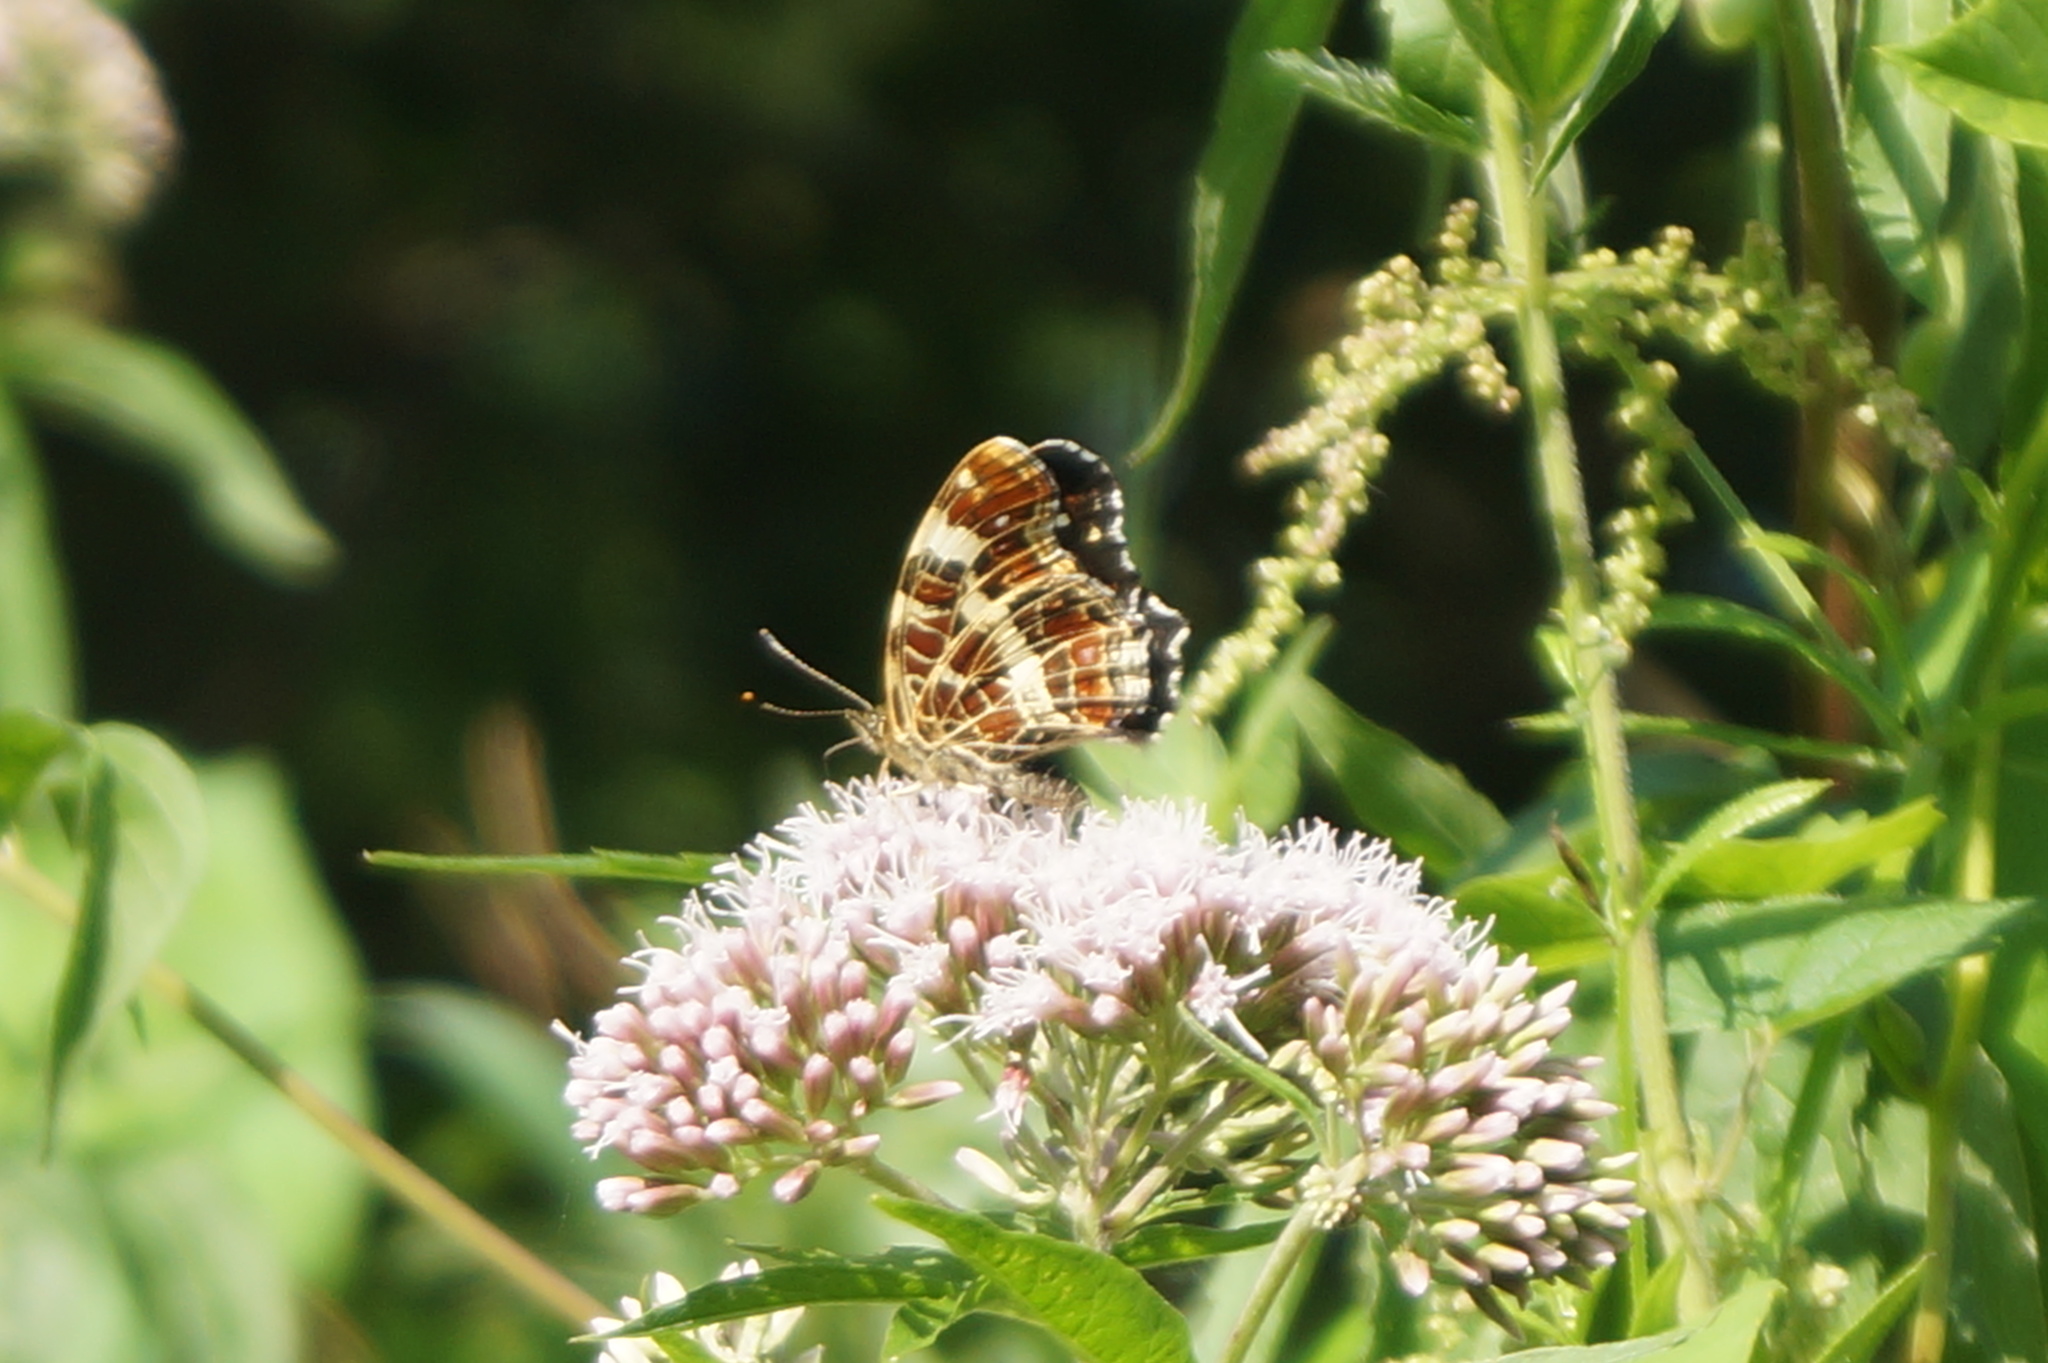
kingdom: Animalia
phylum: Arthropoda
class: Insecta
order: Lepidoptera
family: Nymphalidae
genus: Araschnia
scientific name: Araschnia levana
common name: Map butterfly
